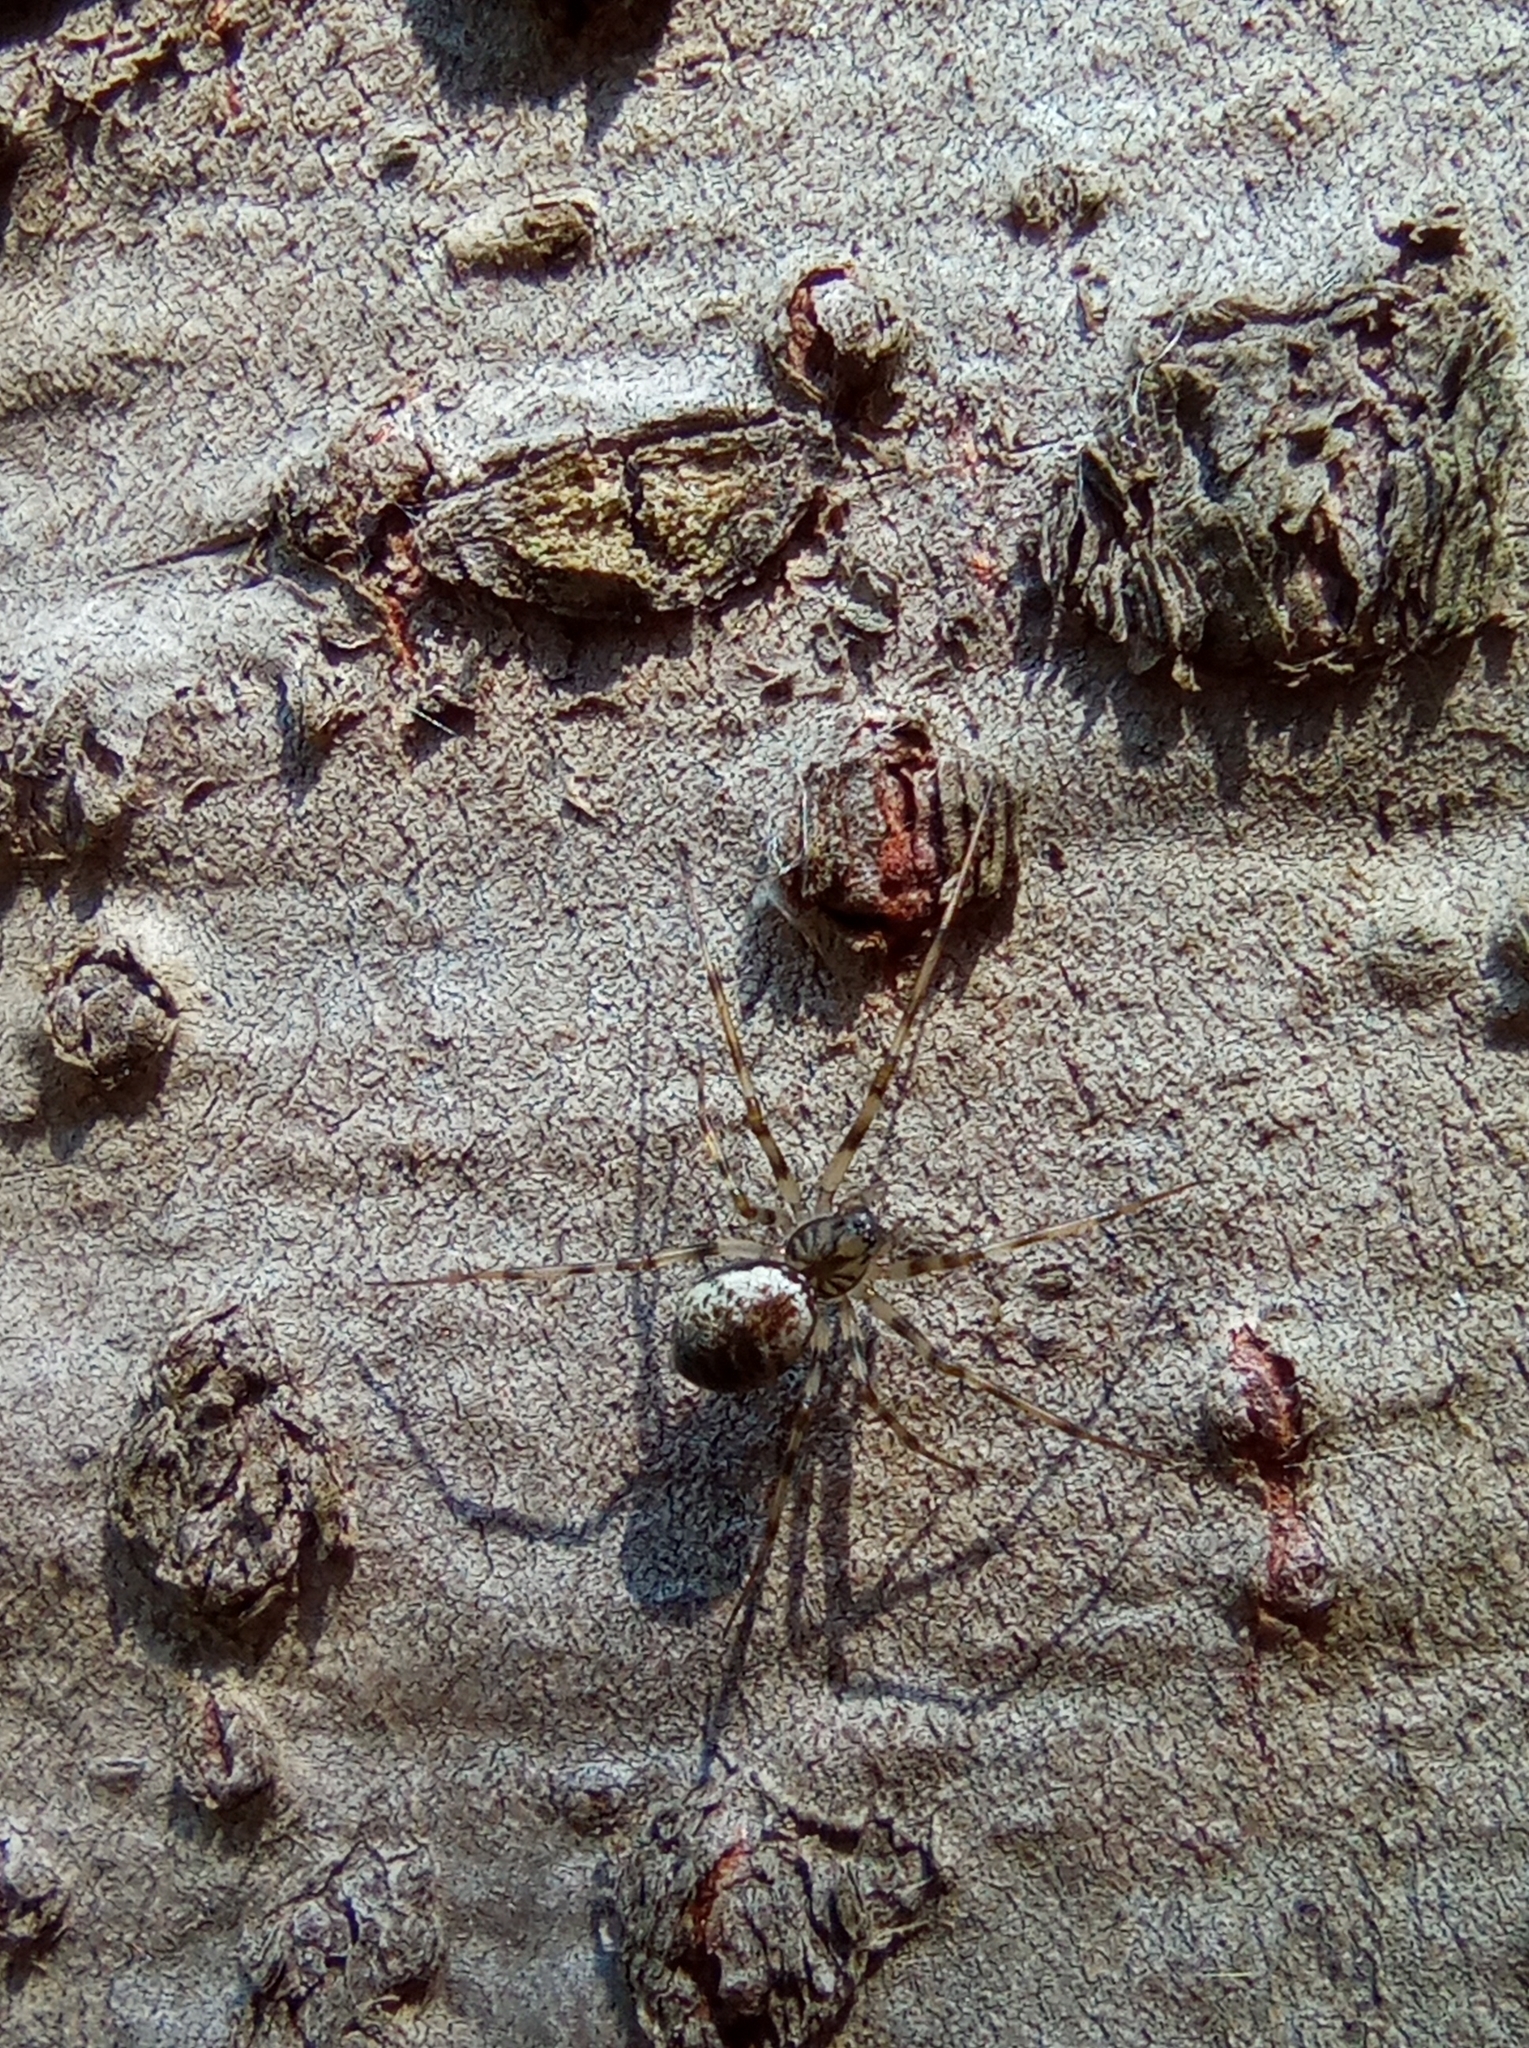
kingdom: Animalia
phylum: Arthropoda
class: Arachnida
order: Araneae
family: Linyphiidae
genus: Drapetisca
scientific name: Drapetisca socialis
